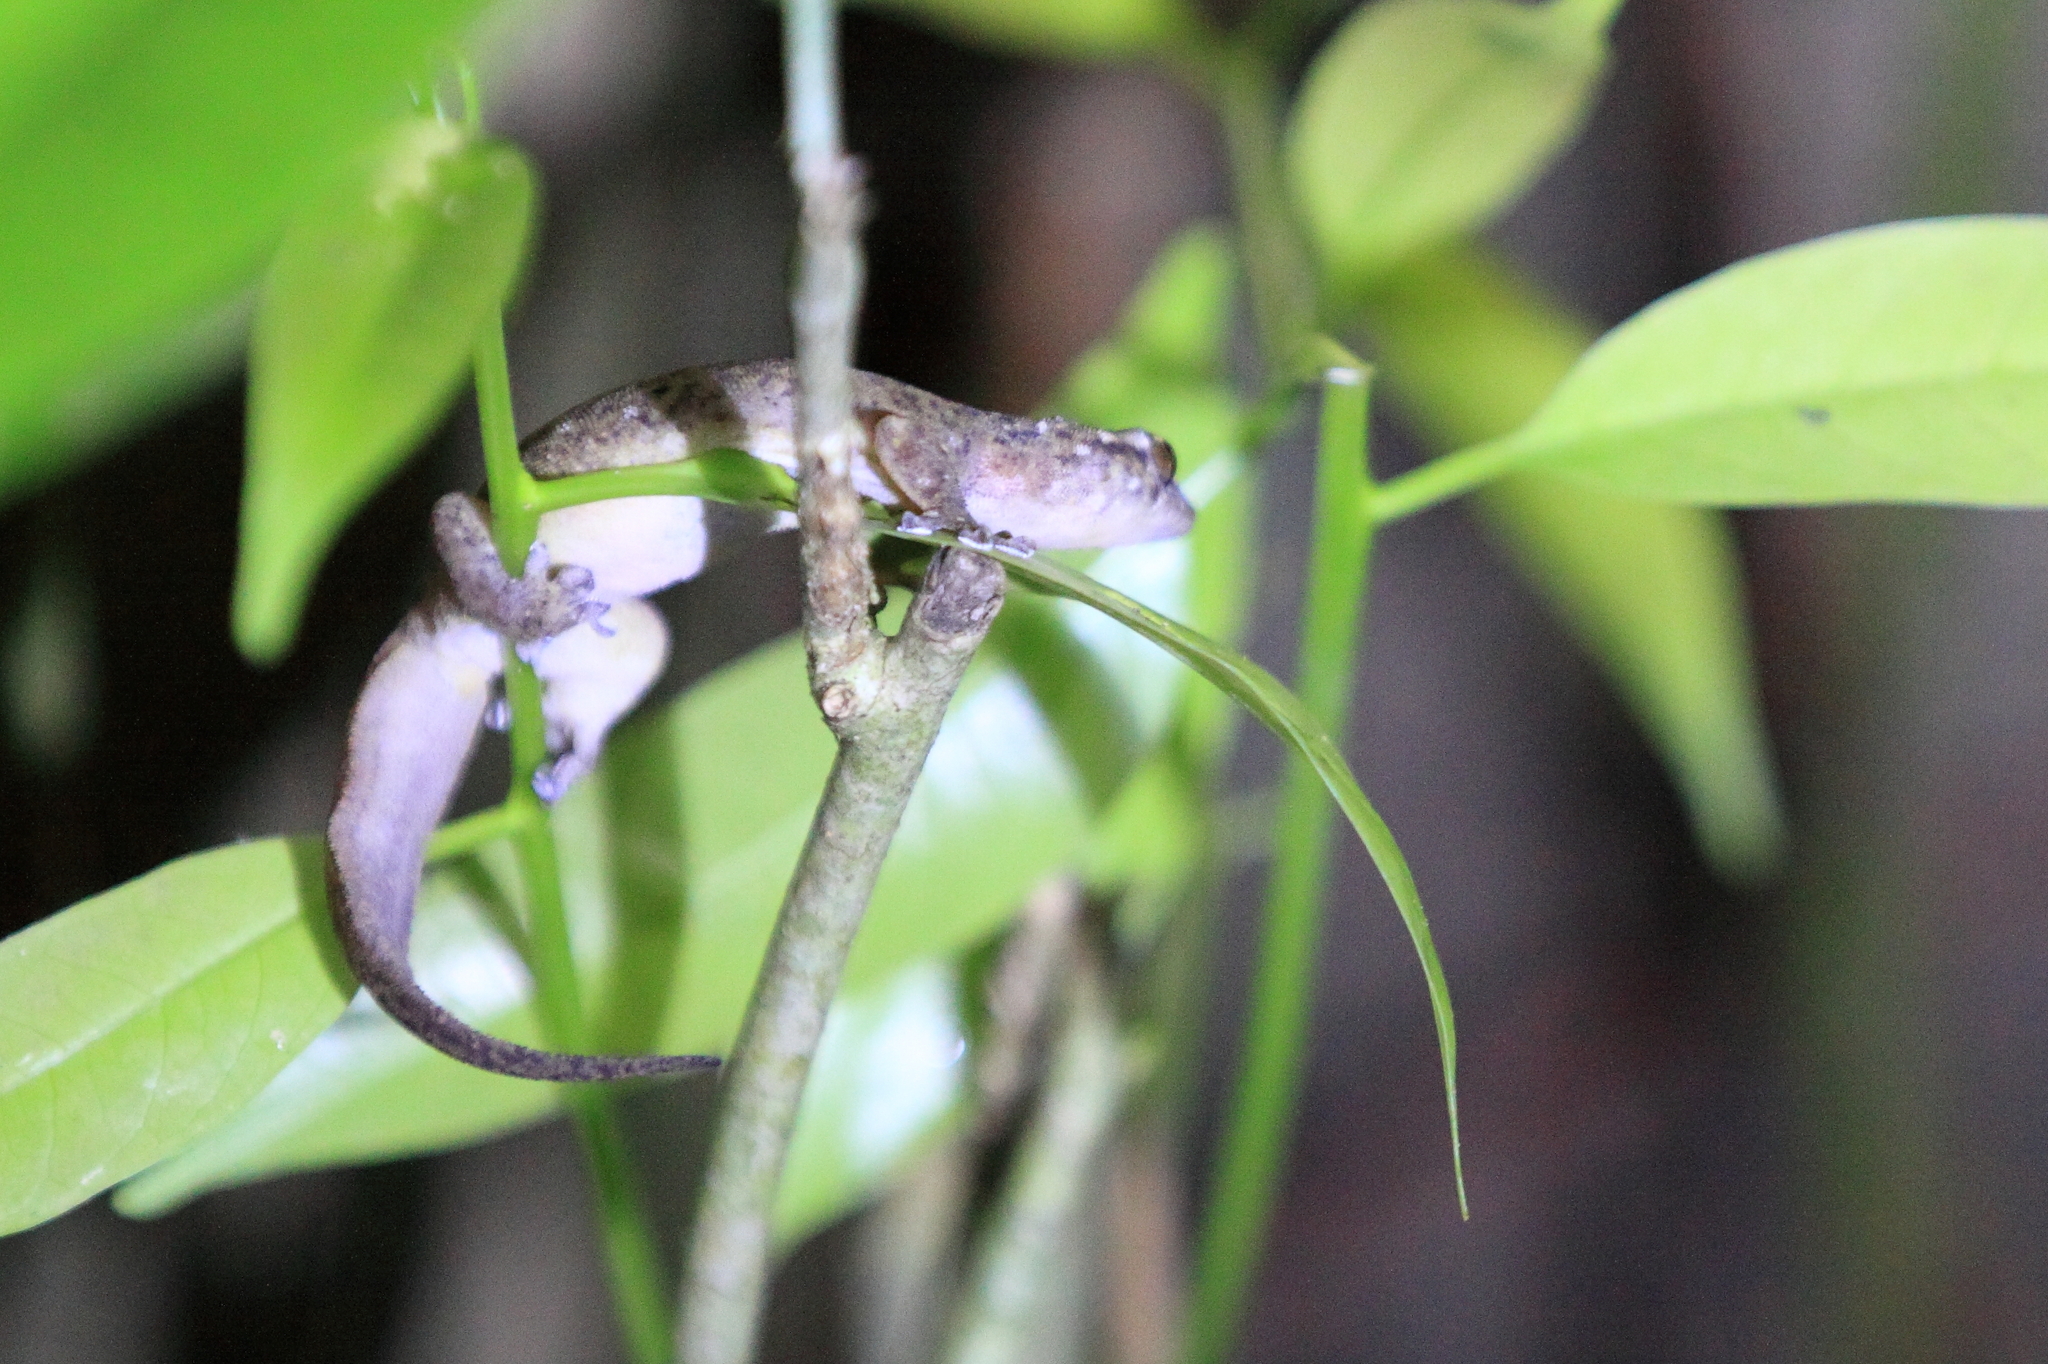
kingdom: Animalia
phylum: Chordata
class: Squamata
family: Gekkonidae
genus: Gehyra
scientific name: Gehyra mutilata
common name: Stump-toed gecko
